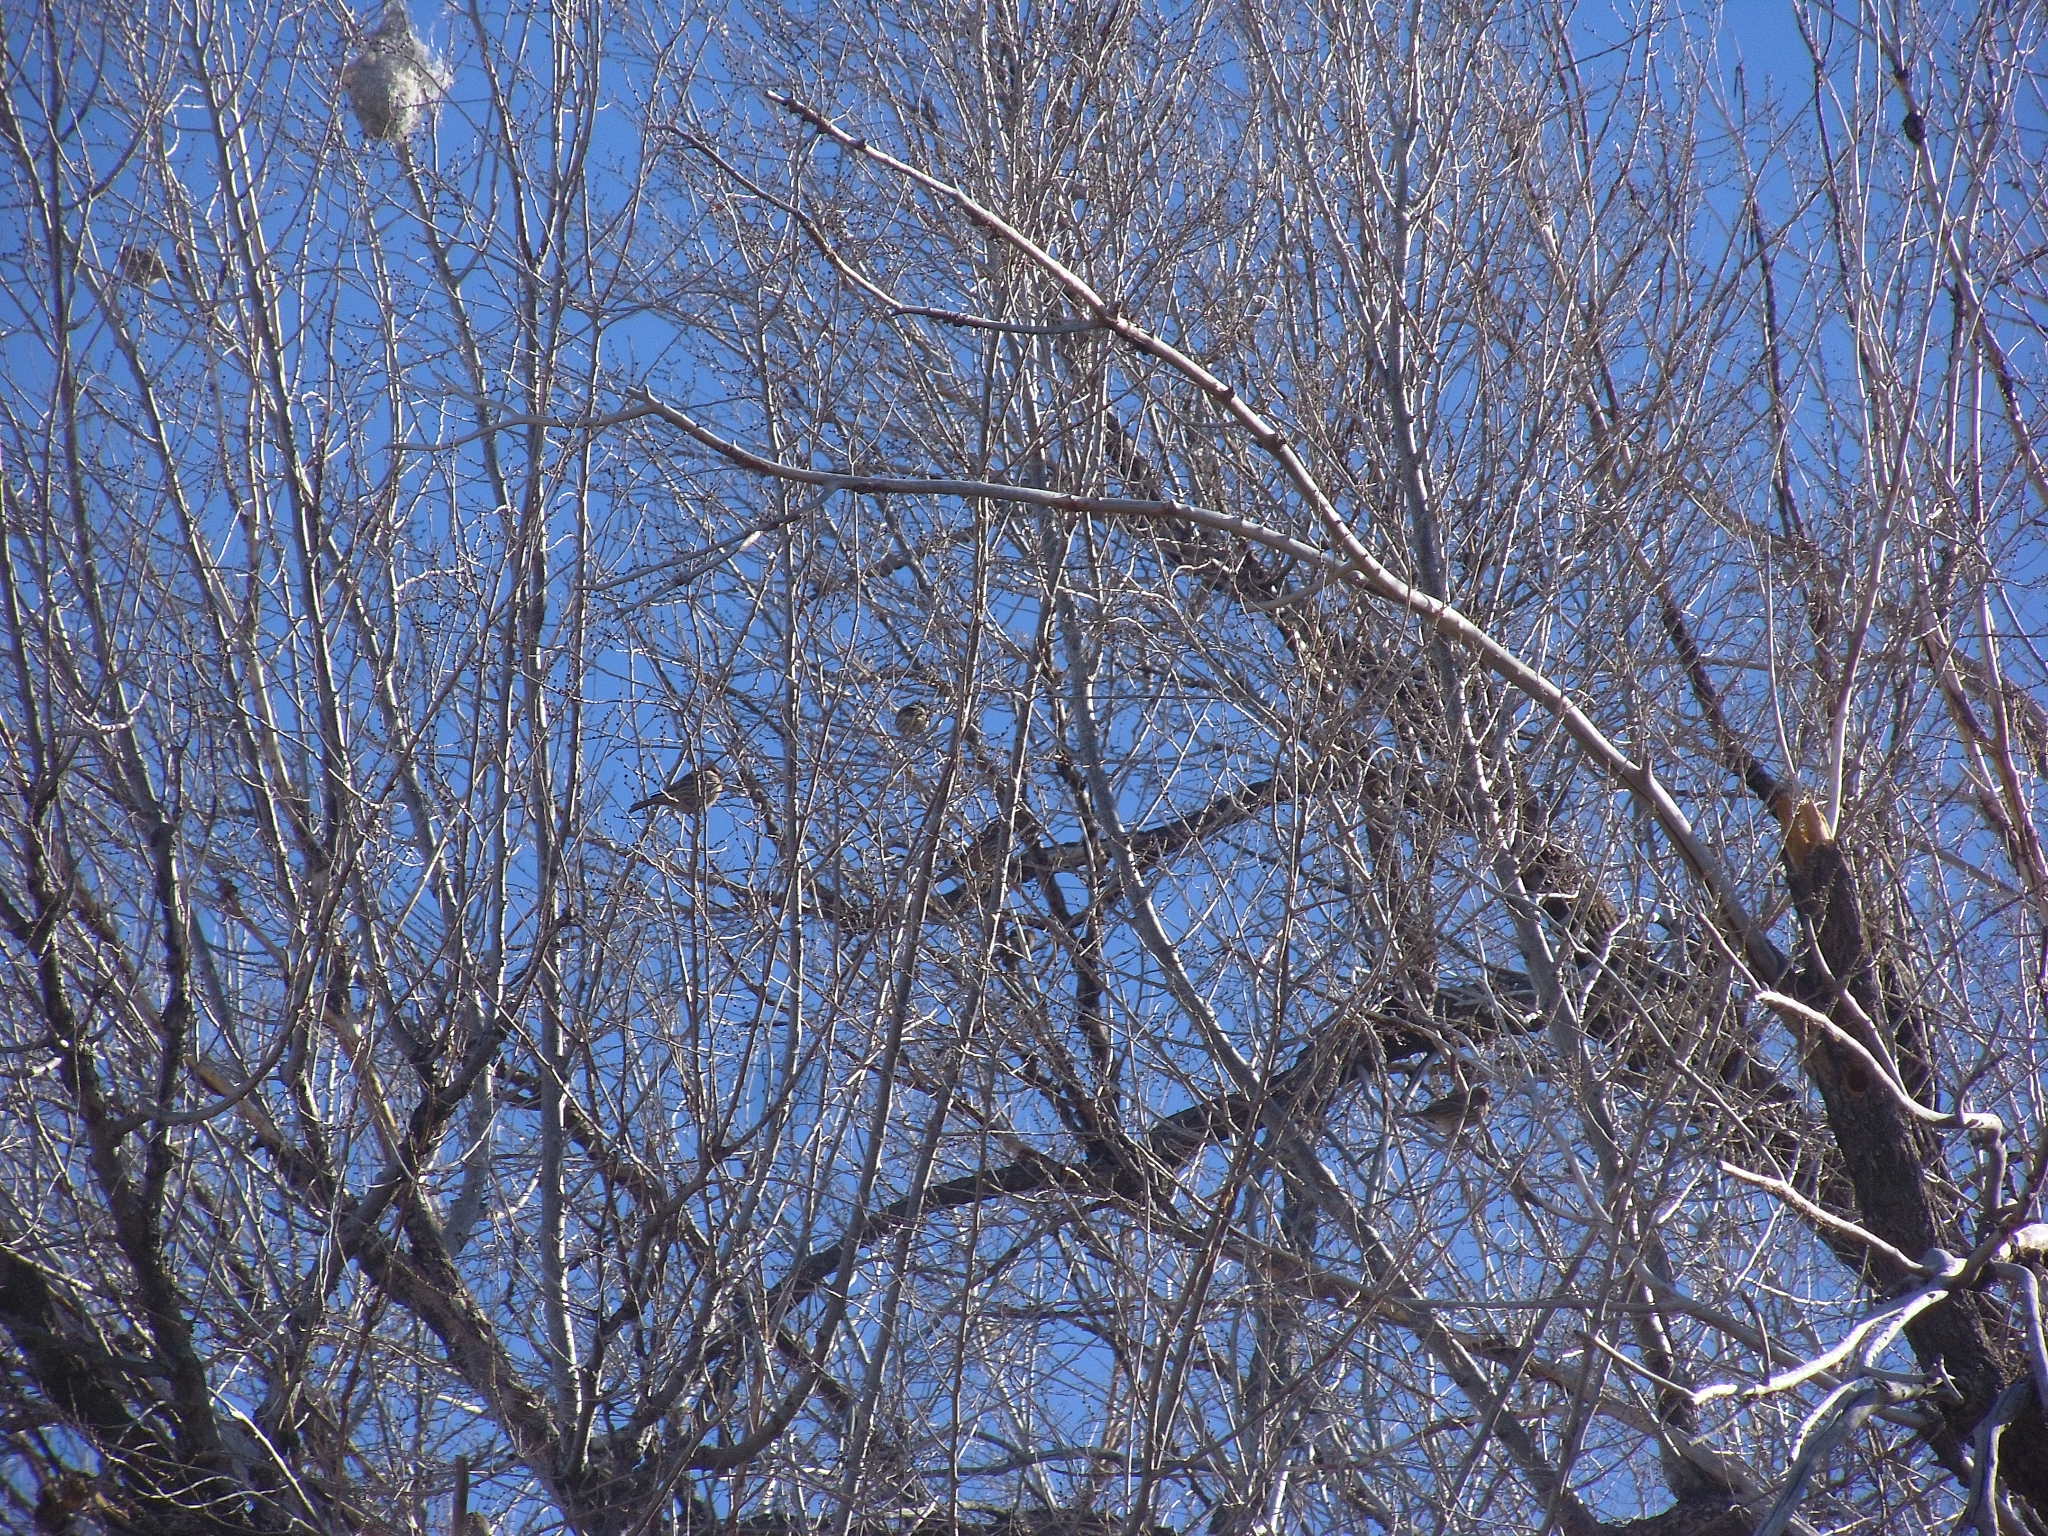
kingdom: Animalia
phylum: Chordata
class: Aves
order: Passeriformes
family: Fringillidae
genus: Haemorhous
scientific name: Haemorhous mexicanus
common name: House finch
